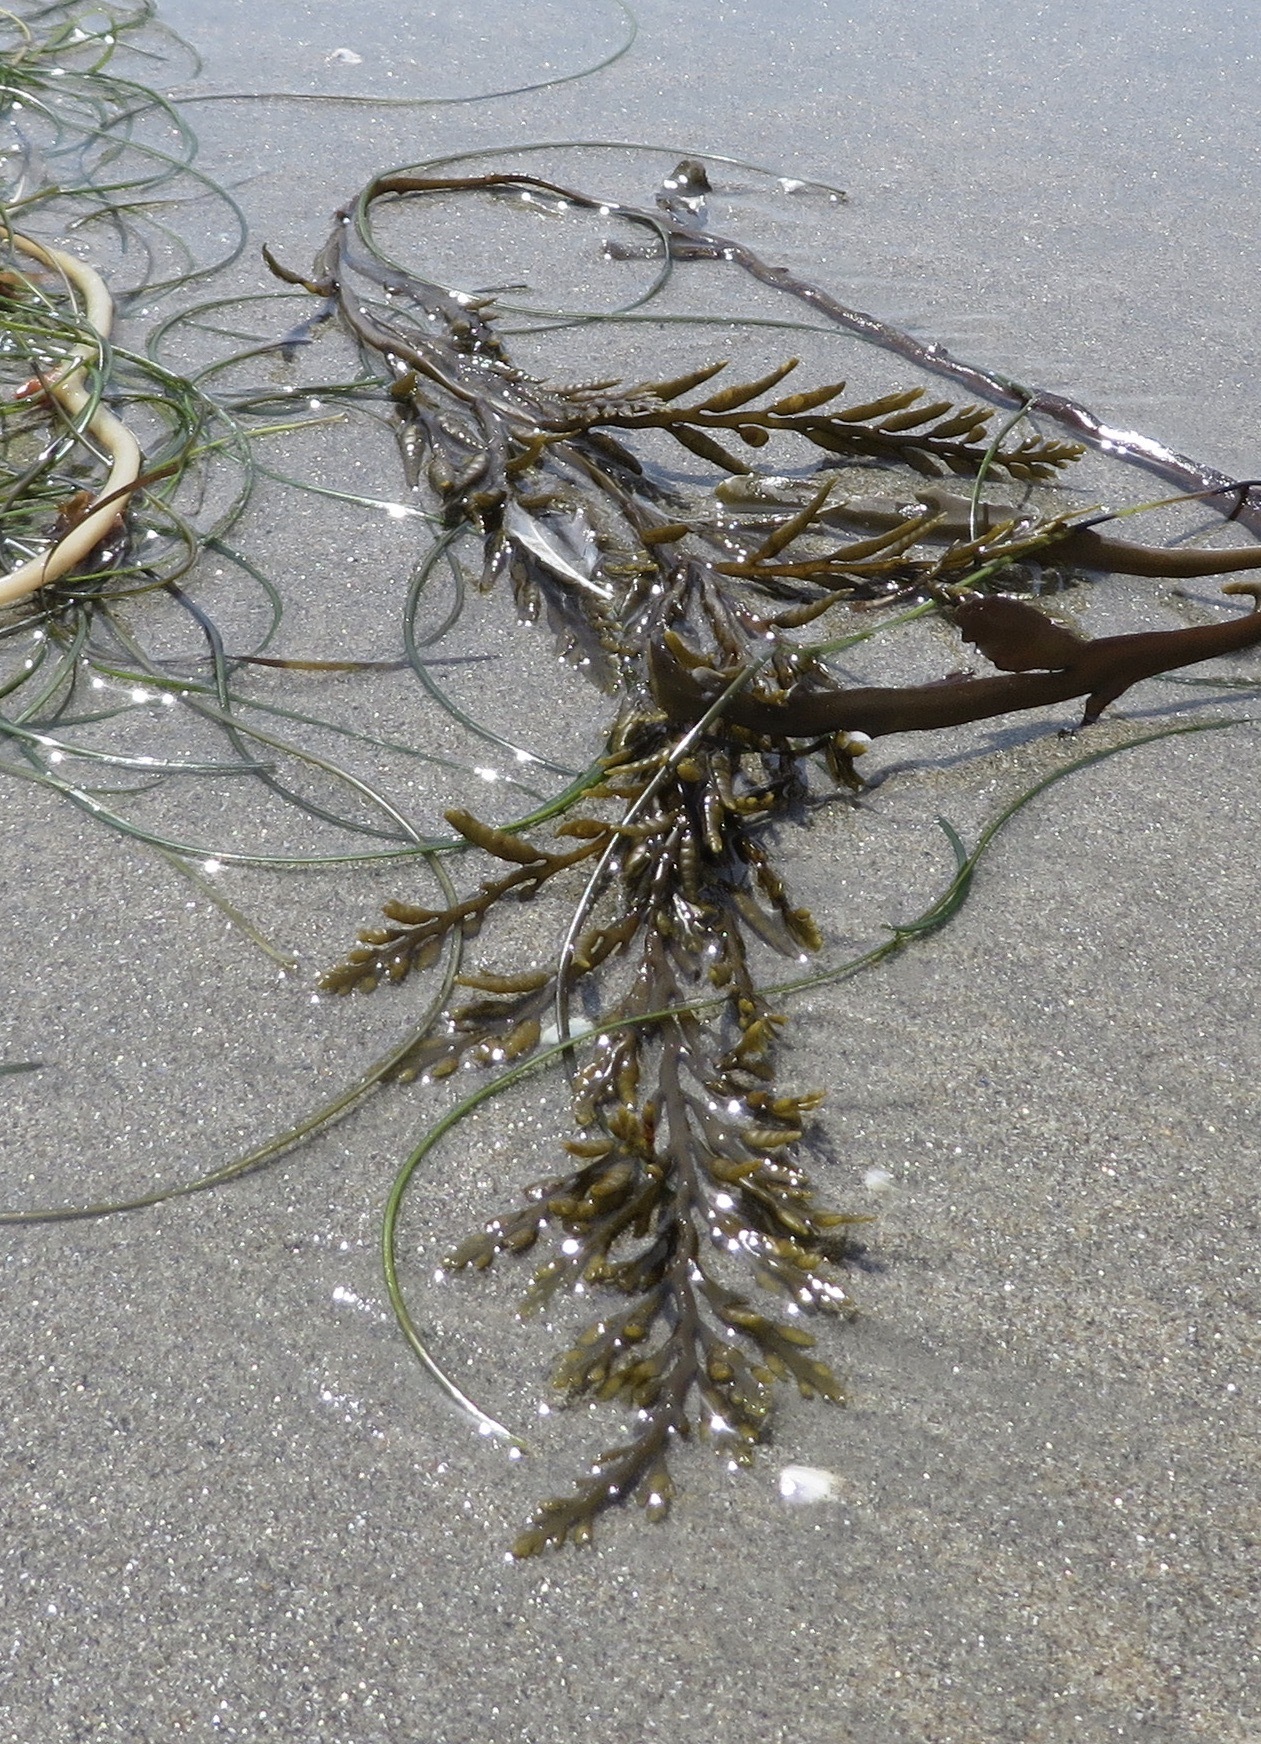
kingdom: Chromista
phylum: Ochrophyta
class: Phaeophyceae
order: Fucales
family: Sargassaceae
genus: Stephanocystis
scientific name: Stephanocystis
